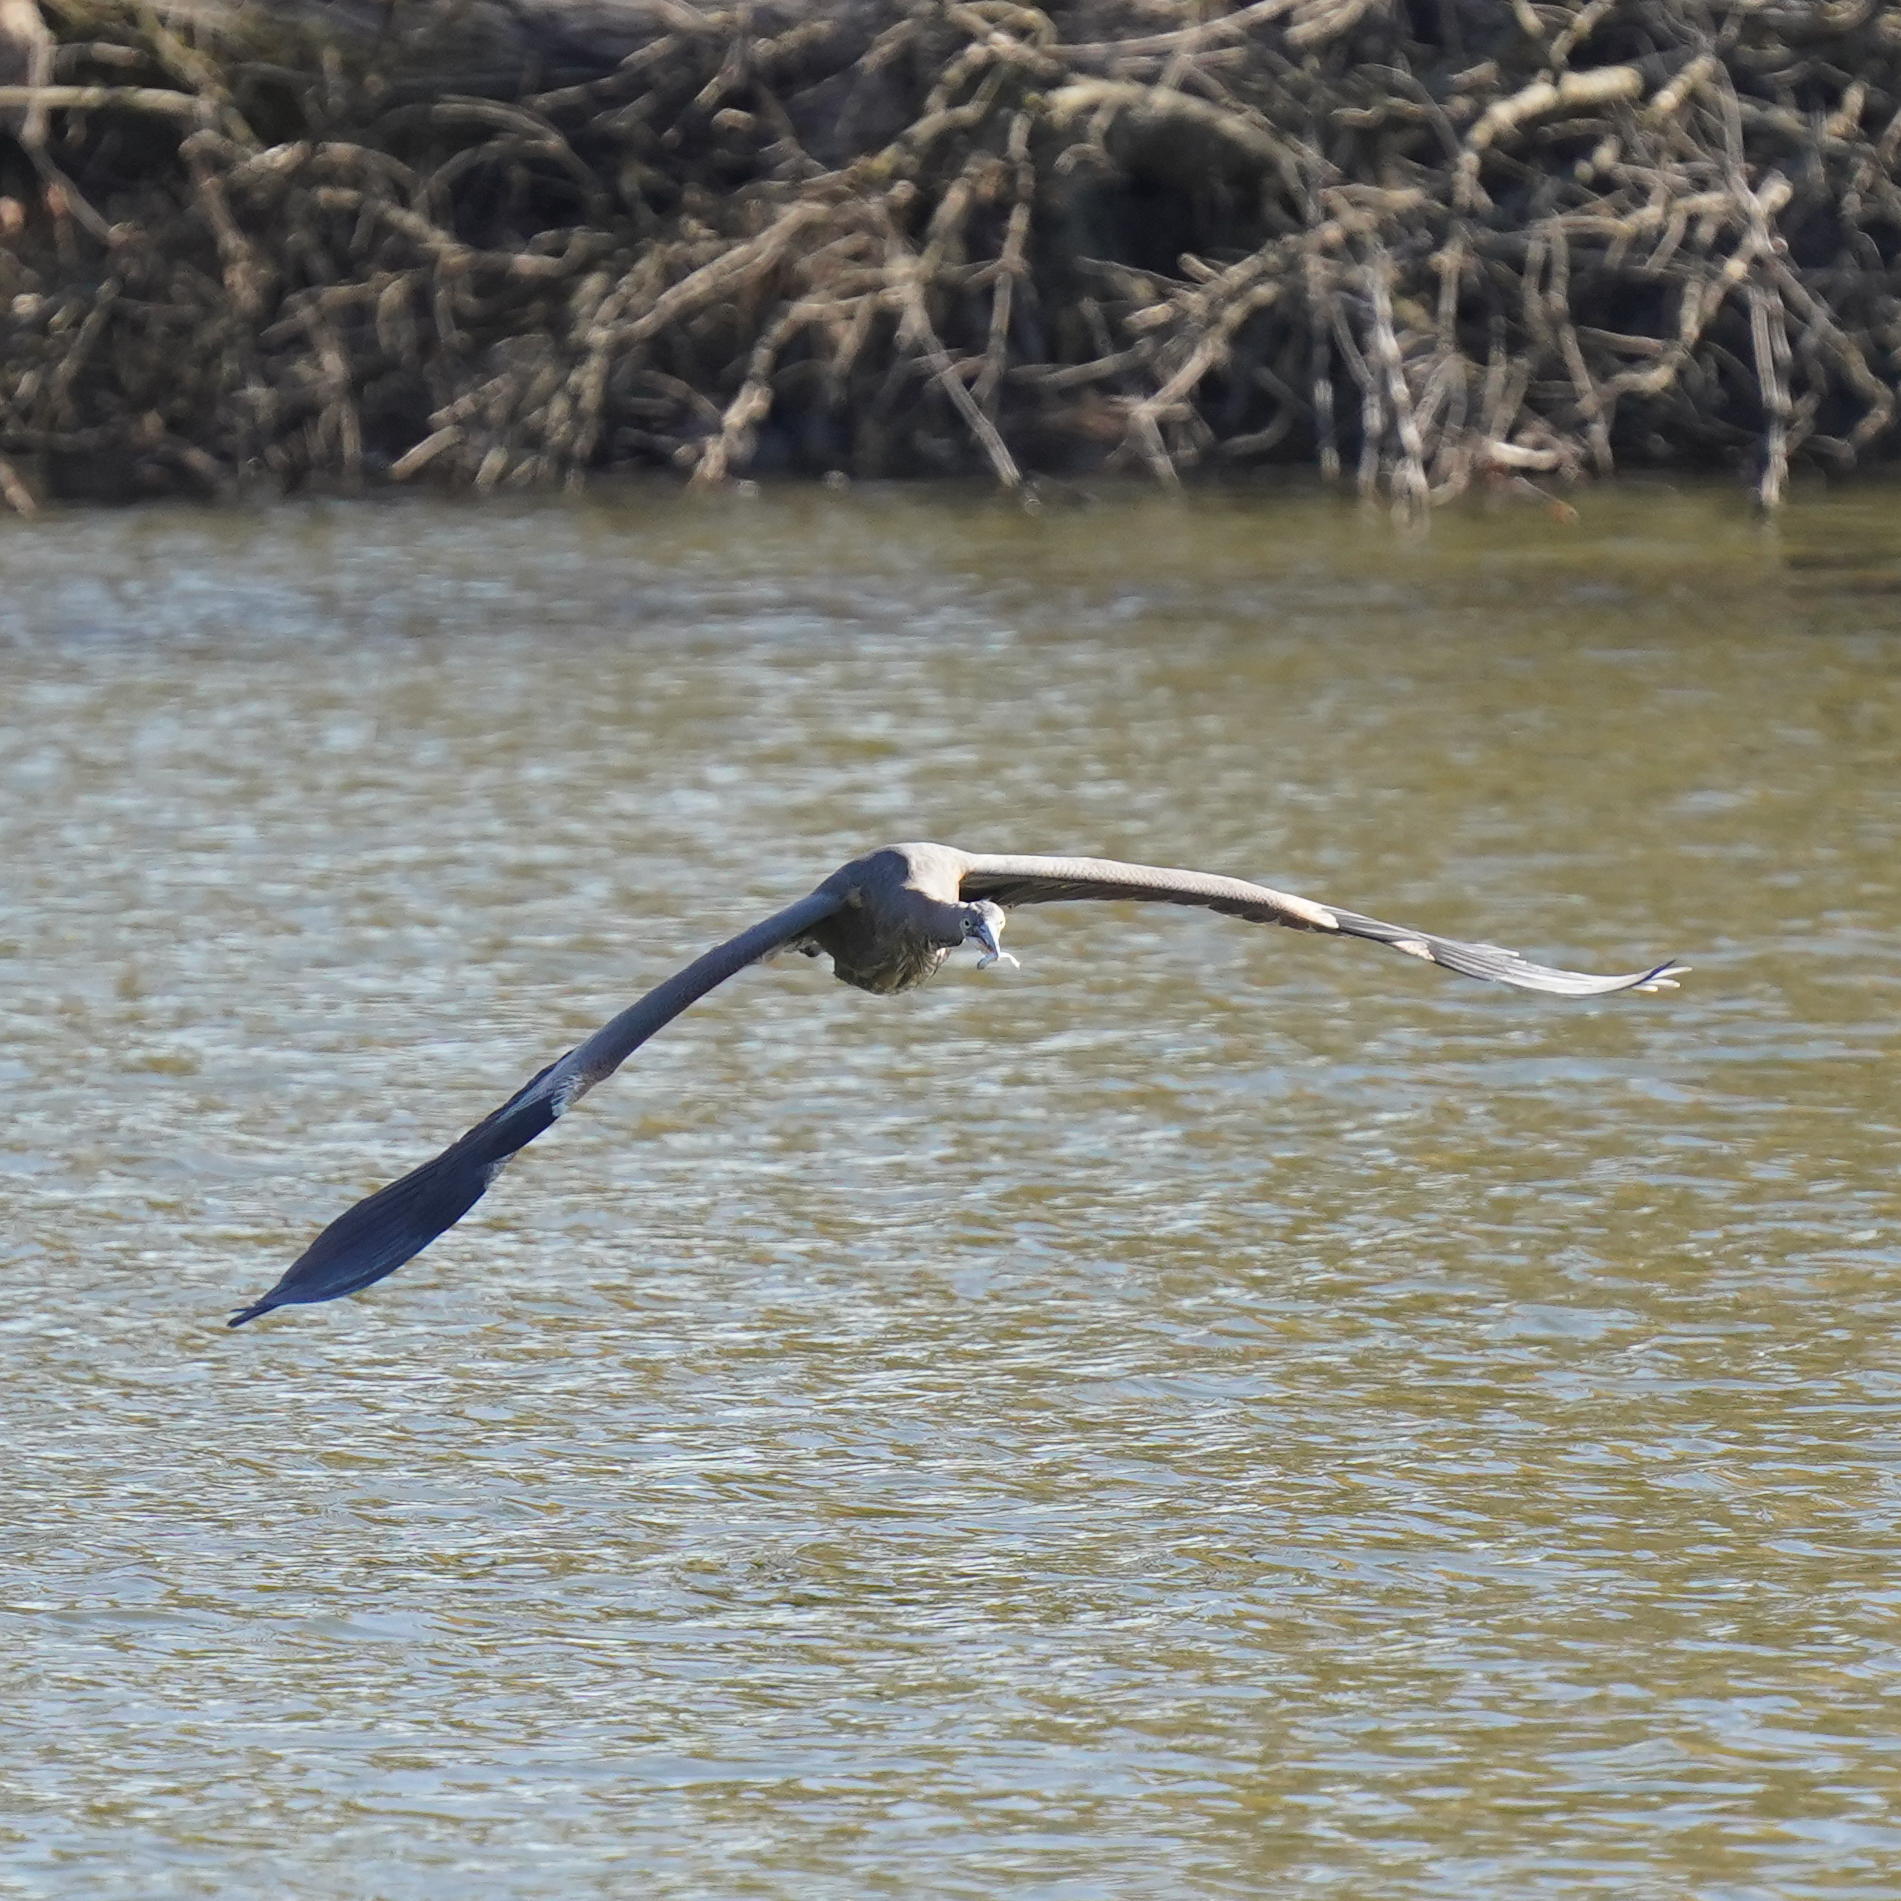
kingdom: Animalia
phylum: Chordata
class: Aves
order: Pelecaniformes
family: Ardeidae
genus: Ardea
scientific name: Ardea herodias
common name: Great blue heron
